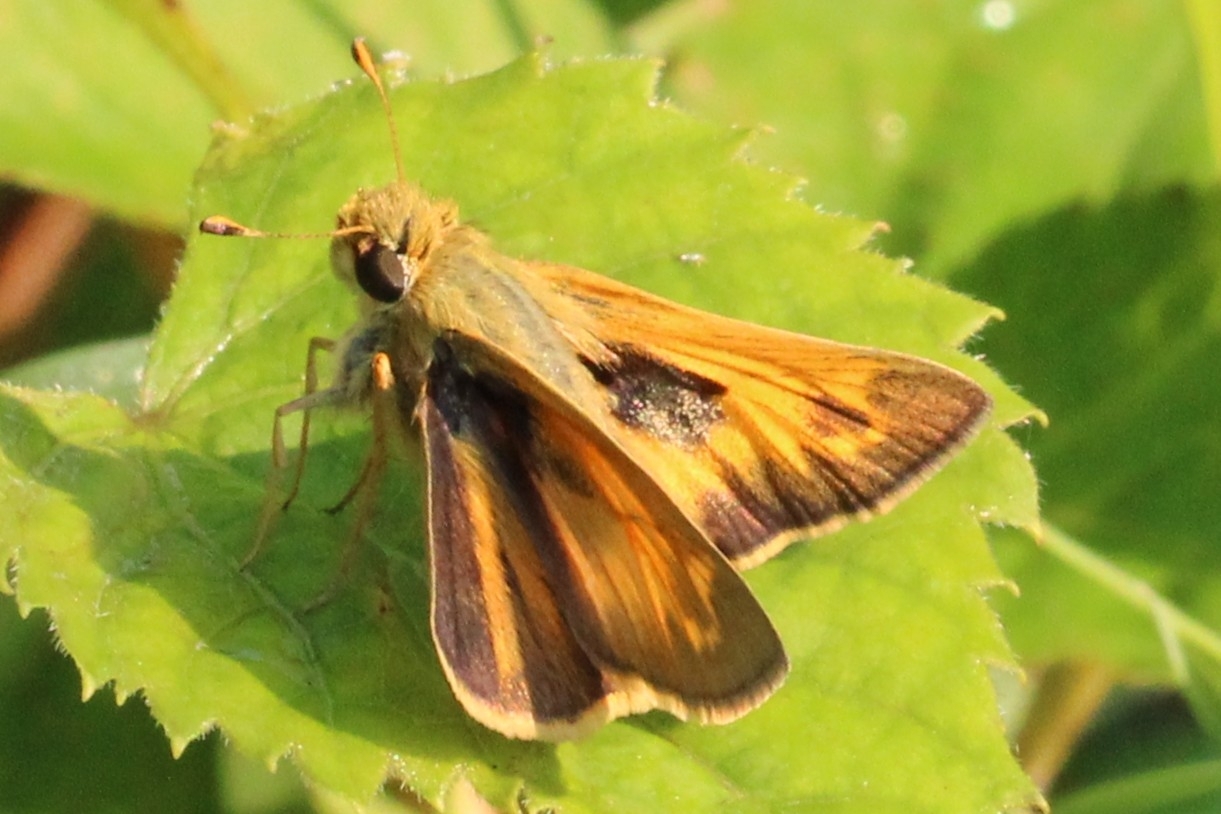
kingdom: Animalia
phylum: Arthropoda
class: Insecta
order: Lepidoptera
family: Hesperiidae
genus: Atalopedes
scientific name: Atalopedes
